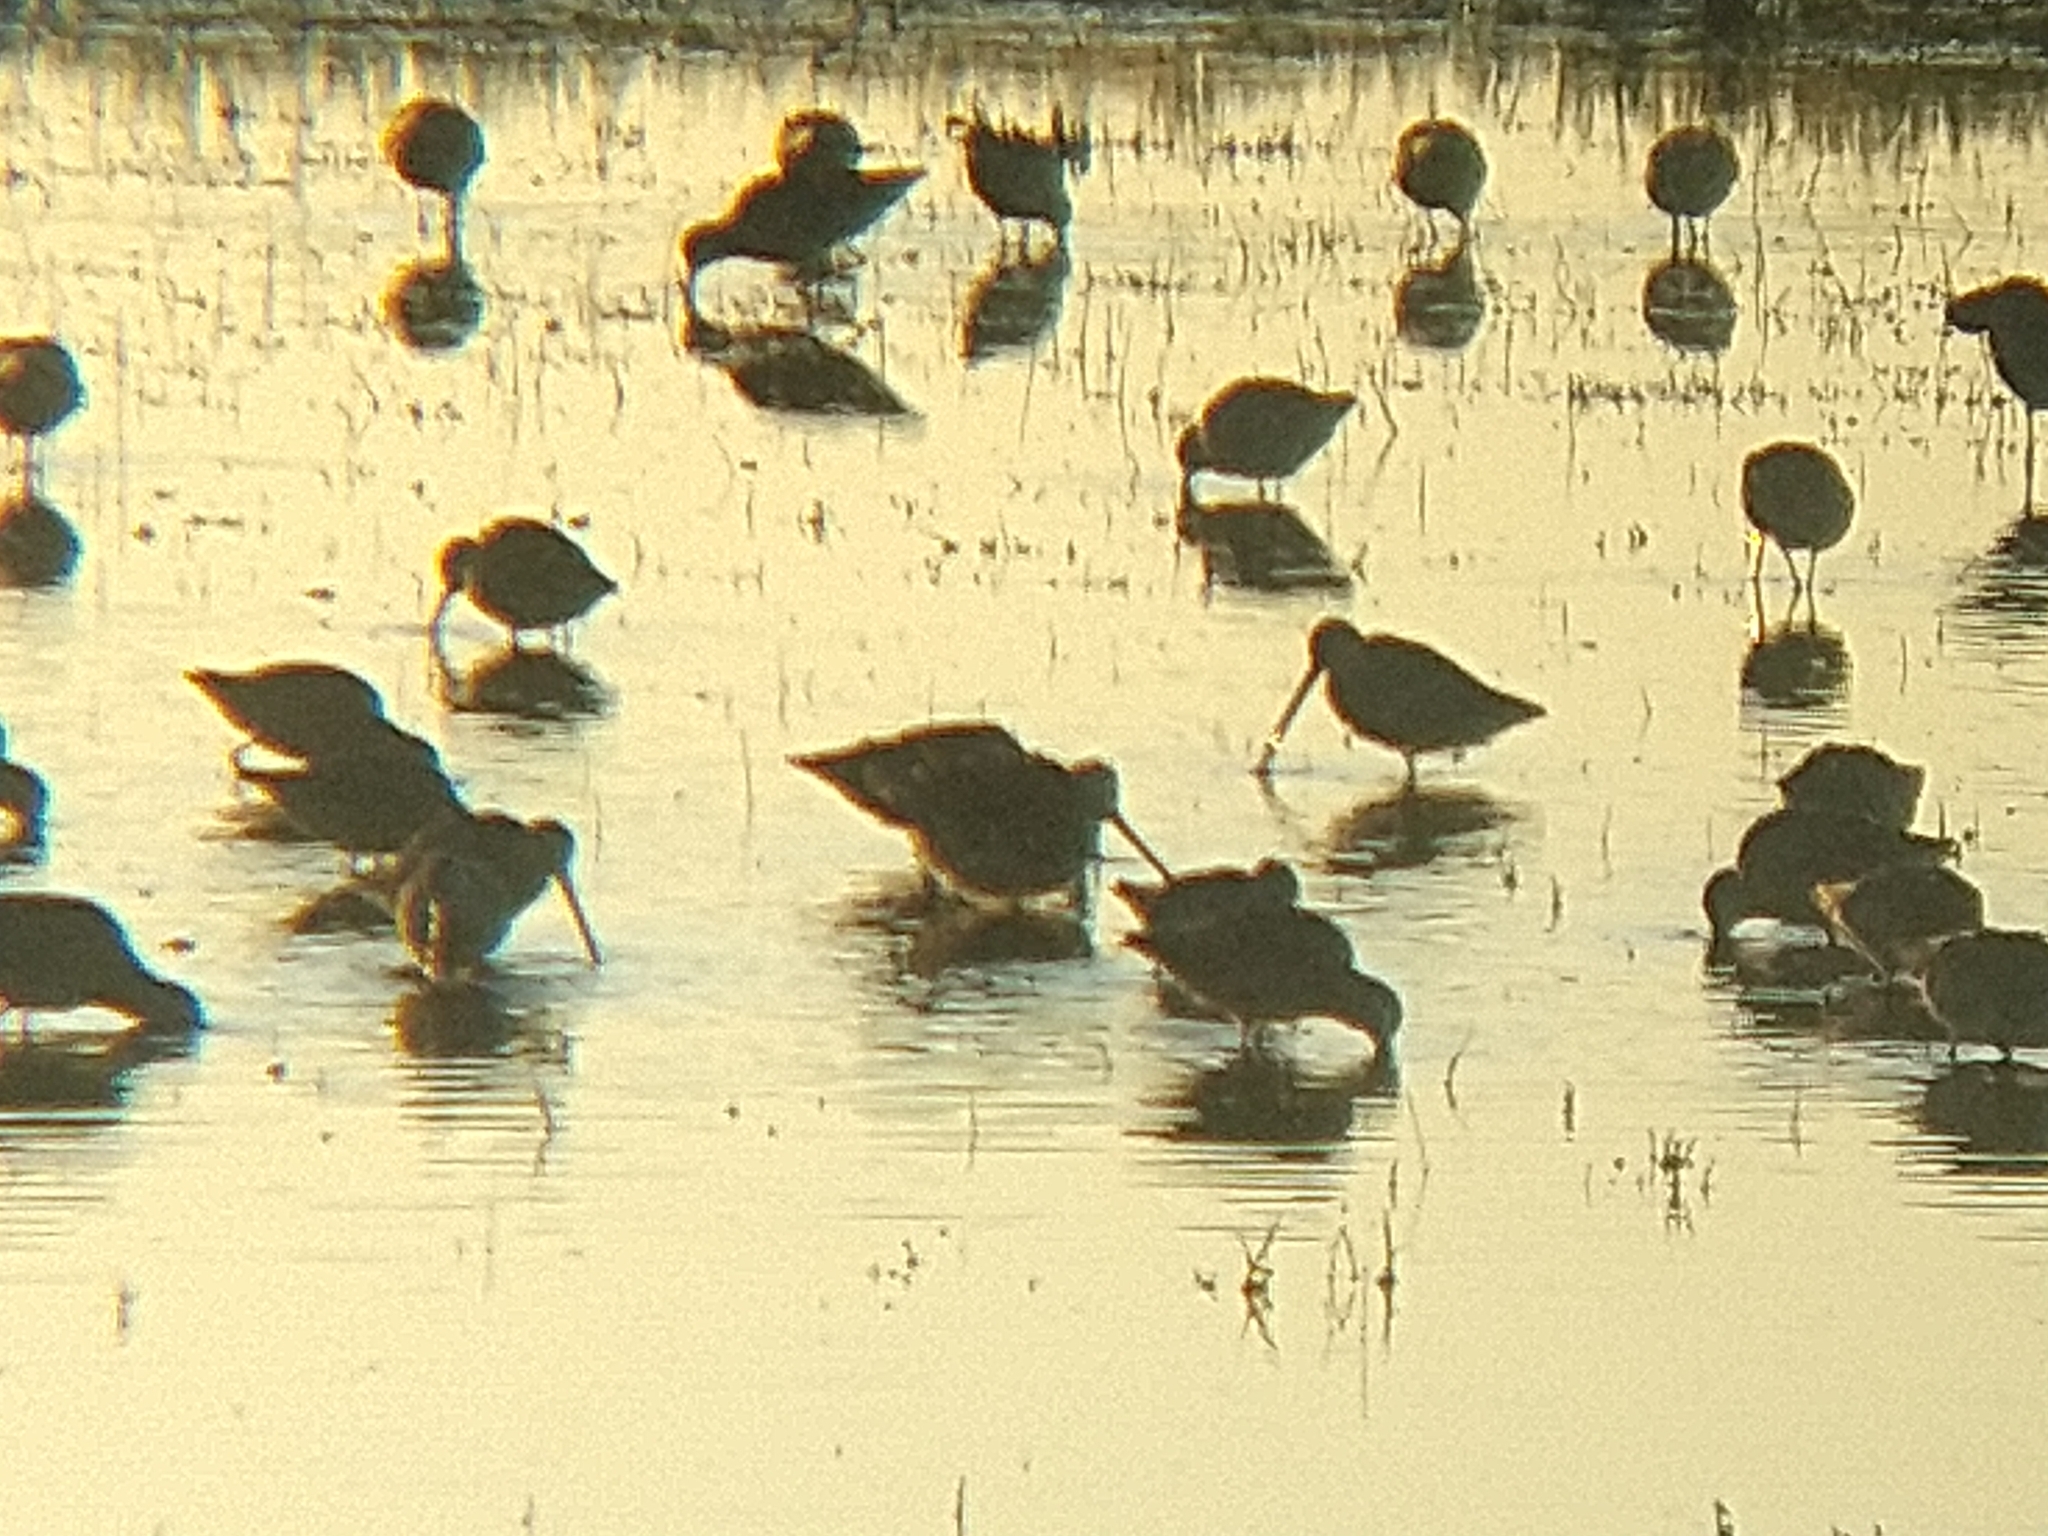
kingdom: Animalia
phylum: Chordata
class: Aves
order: Charadriiformes
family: Scolopacidae
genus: Limnodromus
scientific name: Limnodromus
